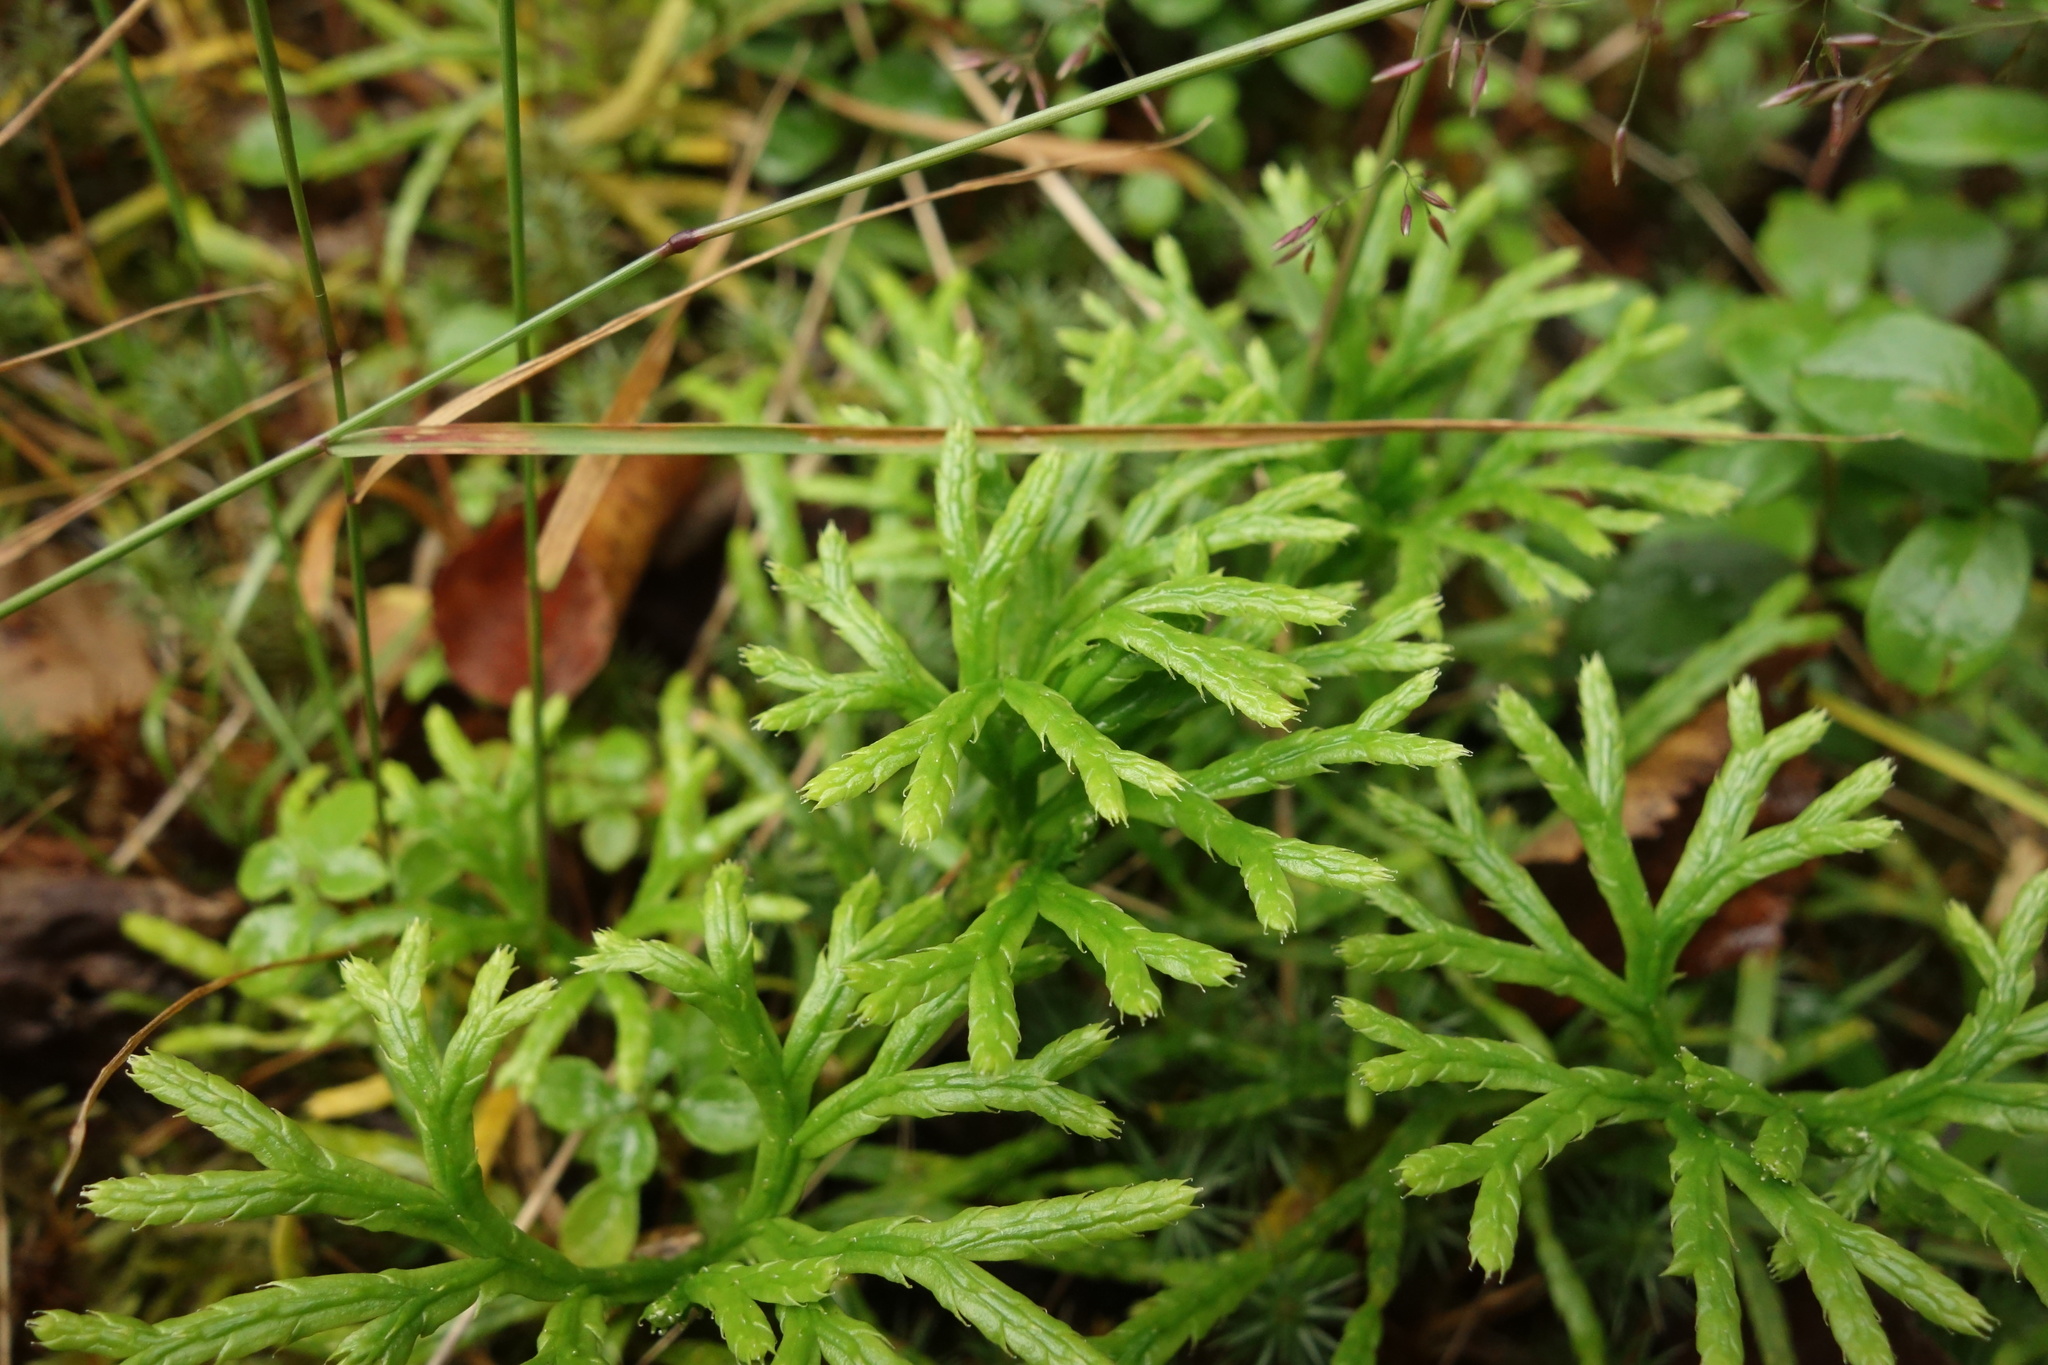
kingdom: Plantae
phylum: Tracheophyta
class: Lycopodiopsida
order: Lycopodiales
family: Lycopodiaceae
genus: Diphasiastrum
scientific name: Diphasiastrum complanatum
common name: Northern running-pine
